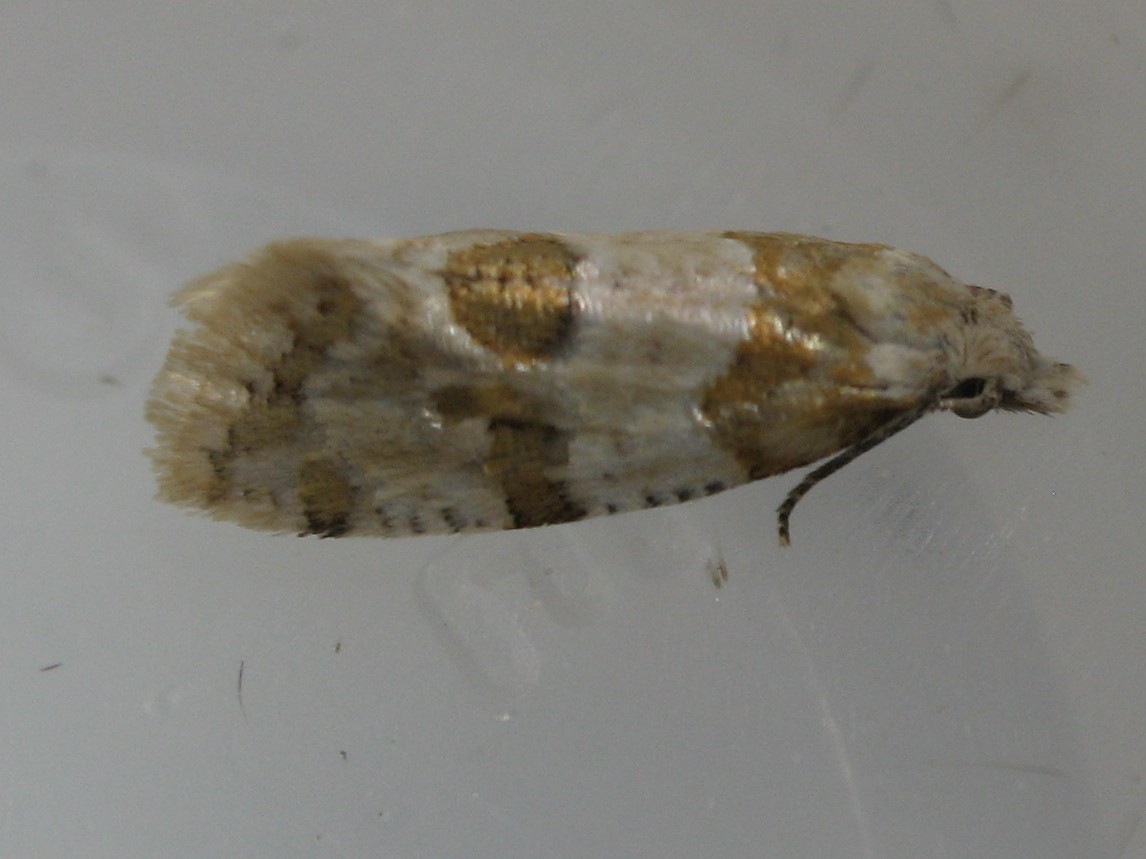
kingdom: Animalia
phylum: Arthropoda
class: Insecta
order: Lepidoptera
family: Tortricidae
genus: Aethes
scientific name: Aethes argentilimitana
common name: Silver-bordered aethes
